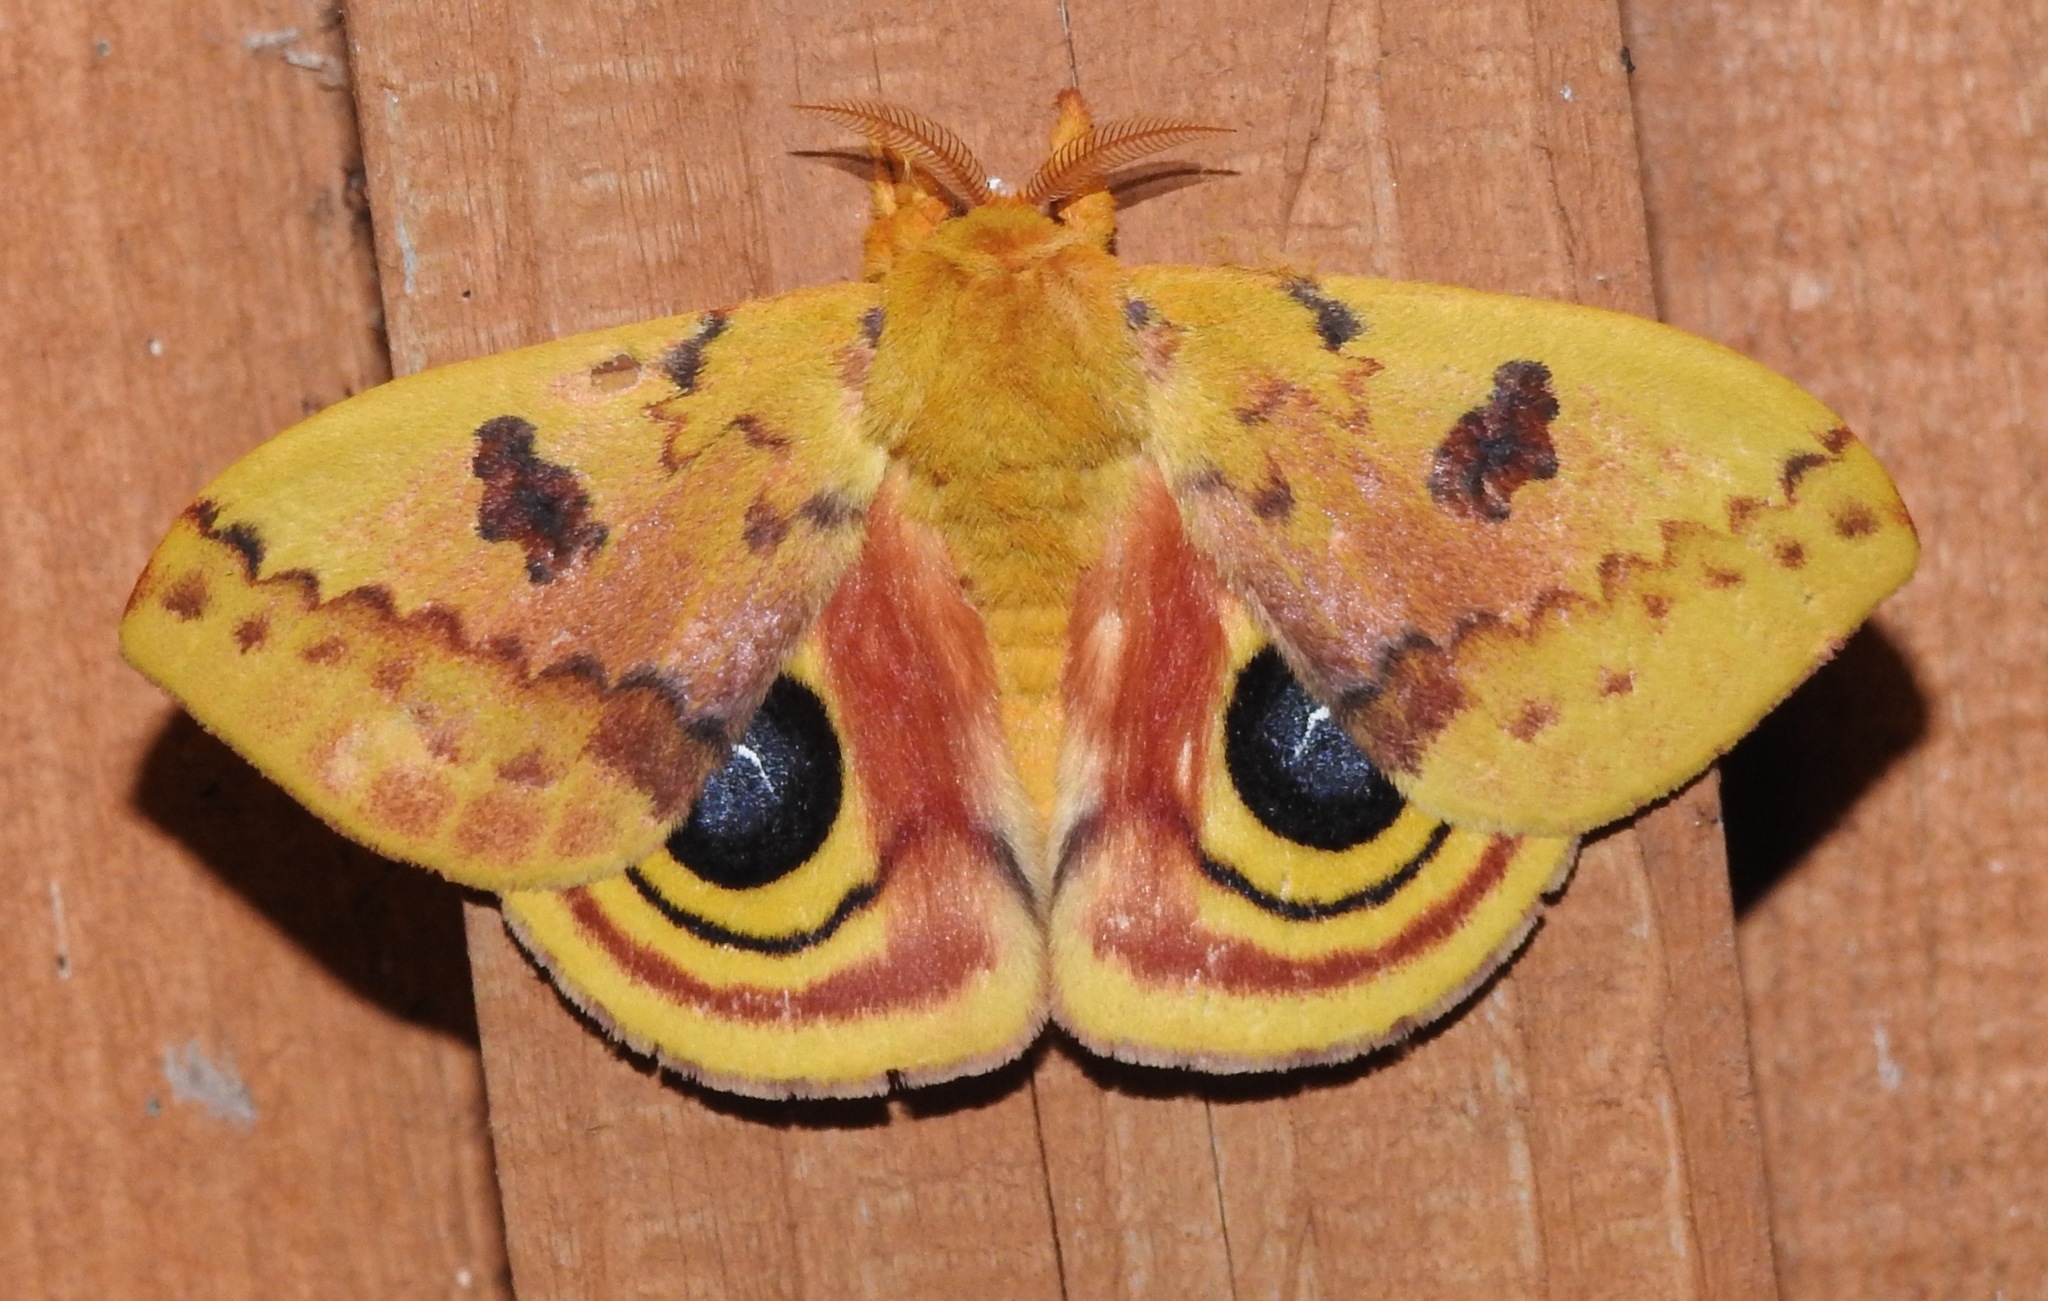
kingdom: Animalia
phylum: Arthropoda
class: Insecta
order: Lepidoptera
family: Saturniidae
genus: Automeris
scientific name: Automeris io
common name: Io moth
